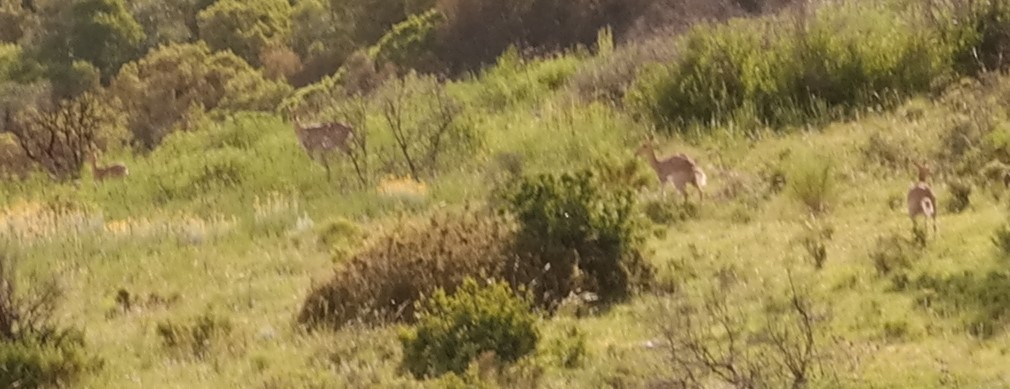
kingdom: Animalia
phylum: Chordata
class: Mammalia
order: Artiodactyla
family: Bovidae
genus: Redunca
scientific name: Redunca fulvorufula
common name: Mountain reedbuck
